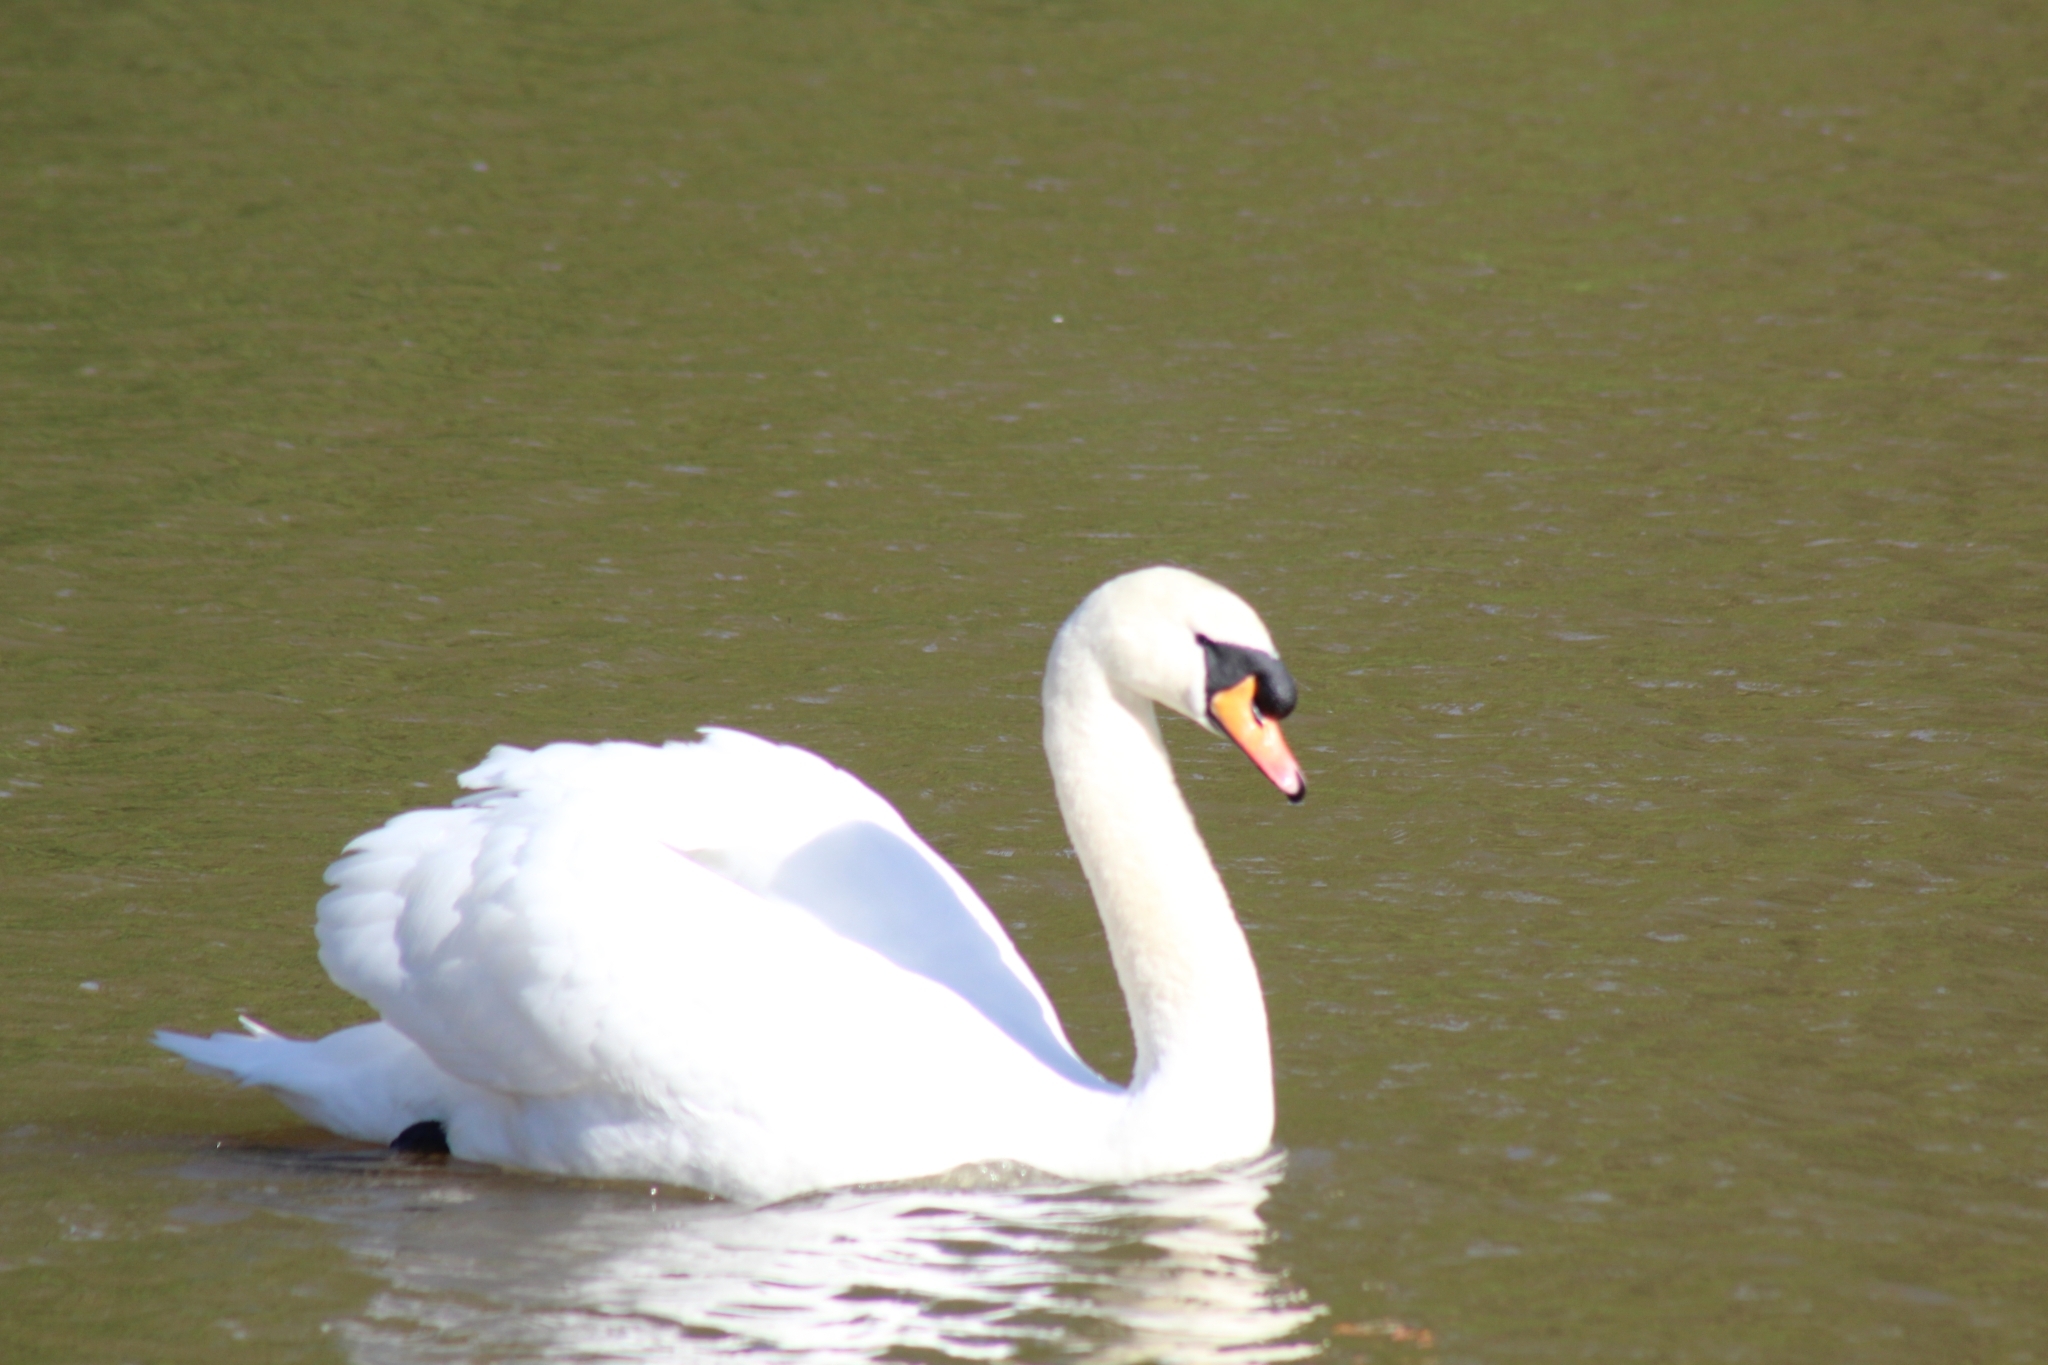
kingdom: Animalia
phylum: Chordata
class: Aves
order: Anseriformes
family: Anatidae
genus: Cygnus
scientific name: Cygnus olor
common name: Mute swan
